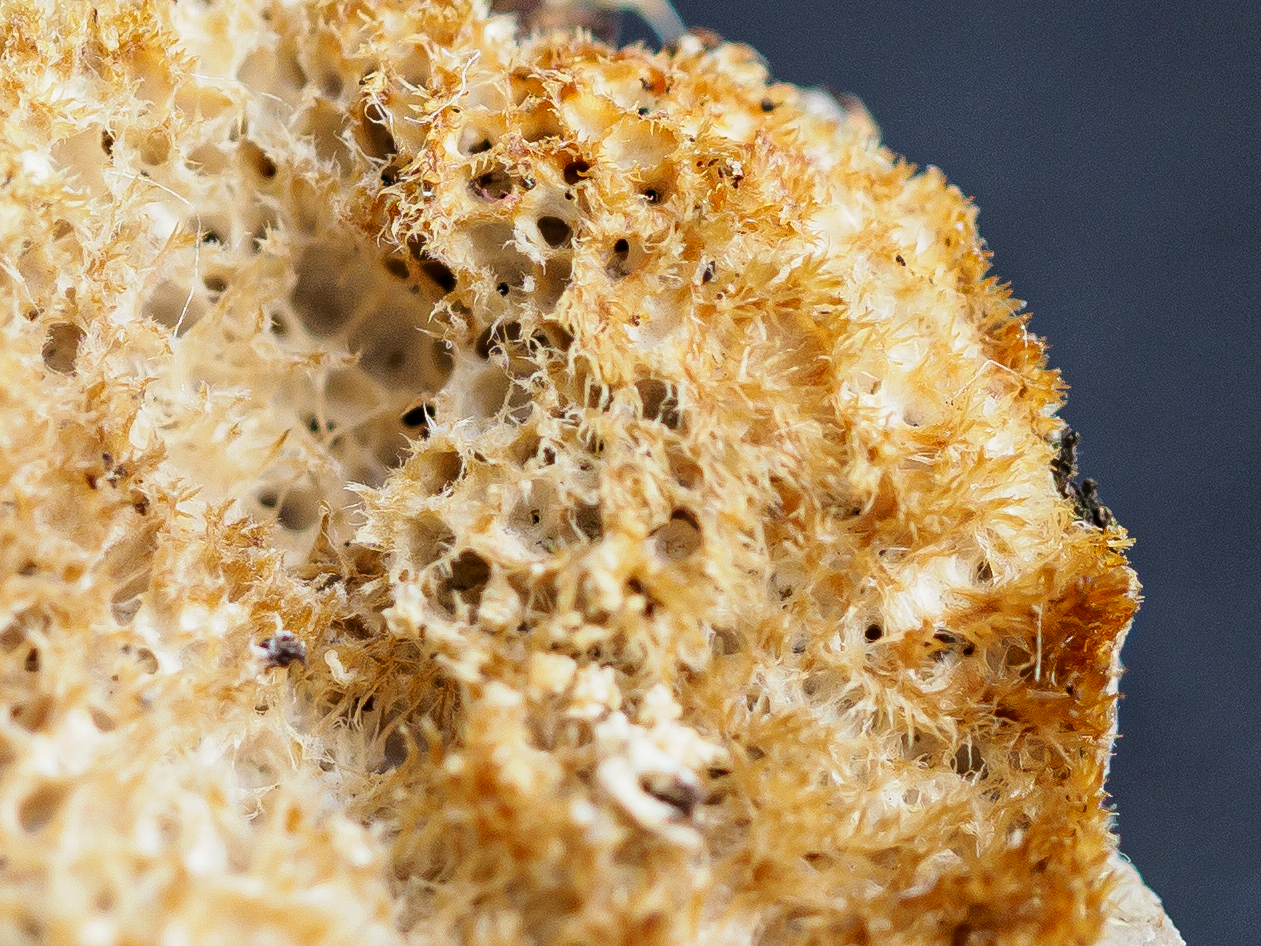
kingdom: Fungi
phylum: Basidiomycota
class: Agaricomycetes
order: Hymenochaetales
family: Oxyporaceae
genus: Oxyporus
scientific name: Oxyporus corticola
